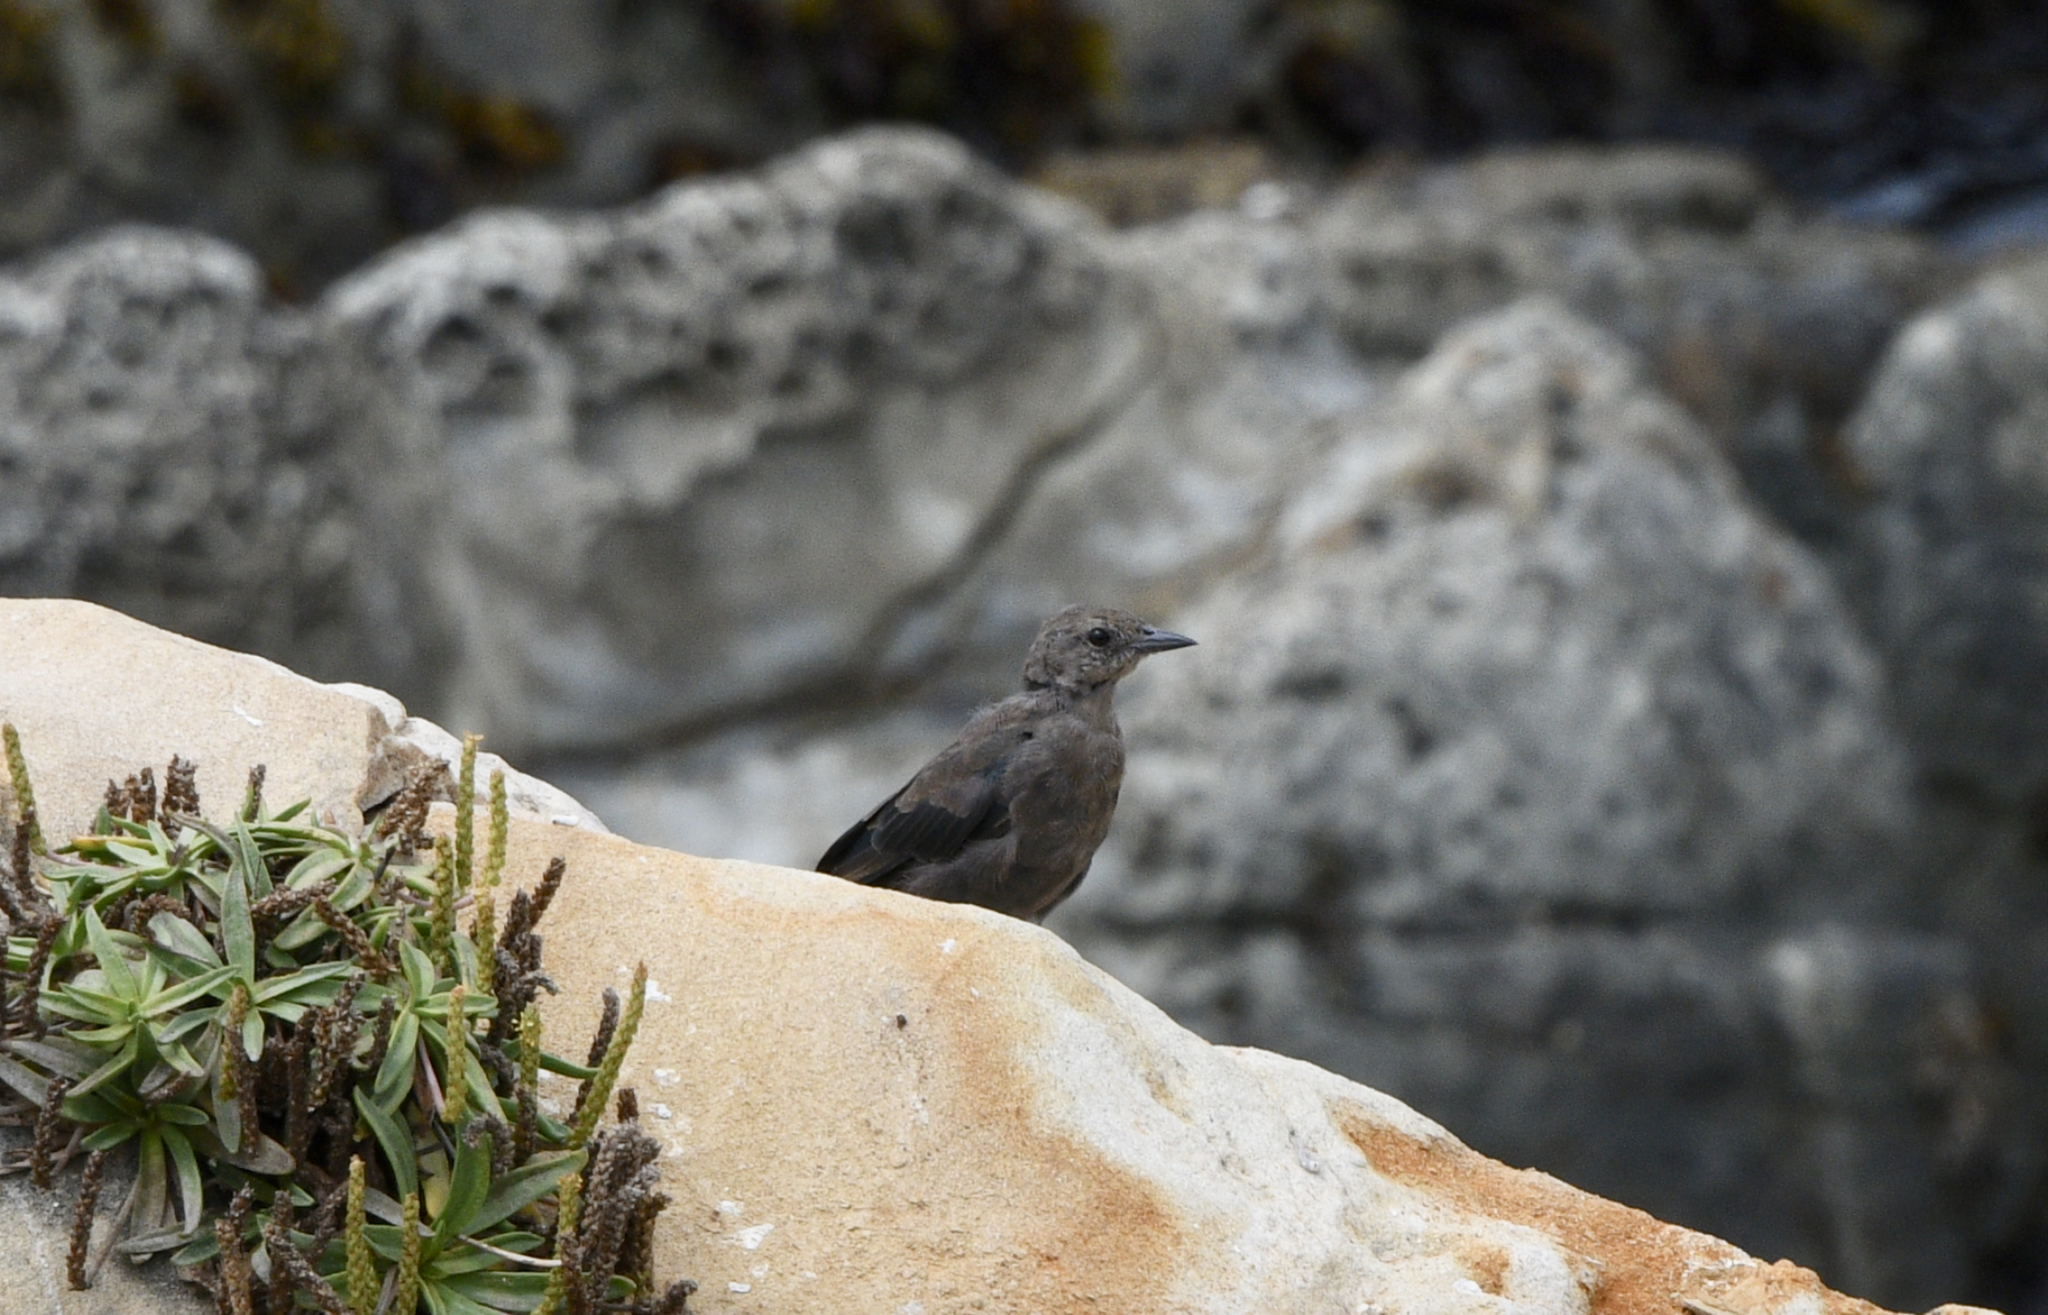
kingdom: Animalia
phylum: Chordata
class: Aves
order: Passeriformes
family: Icteridae
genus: Euphagus
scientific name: Euphagus cyanocephalus
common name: Brewer's blackbird
